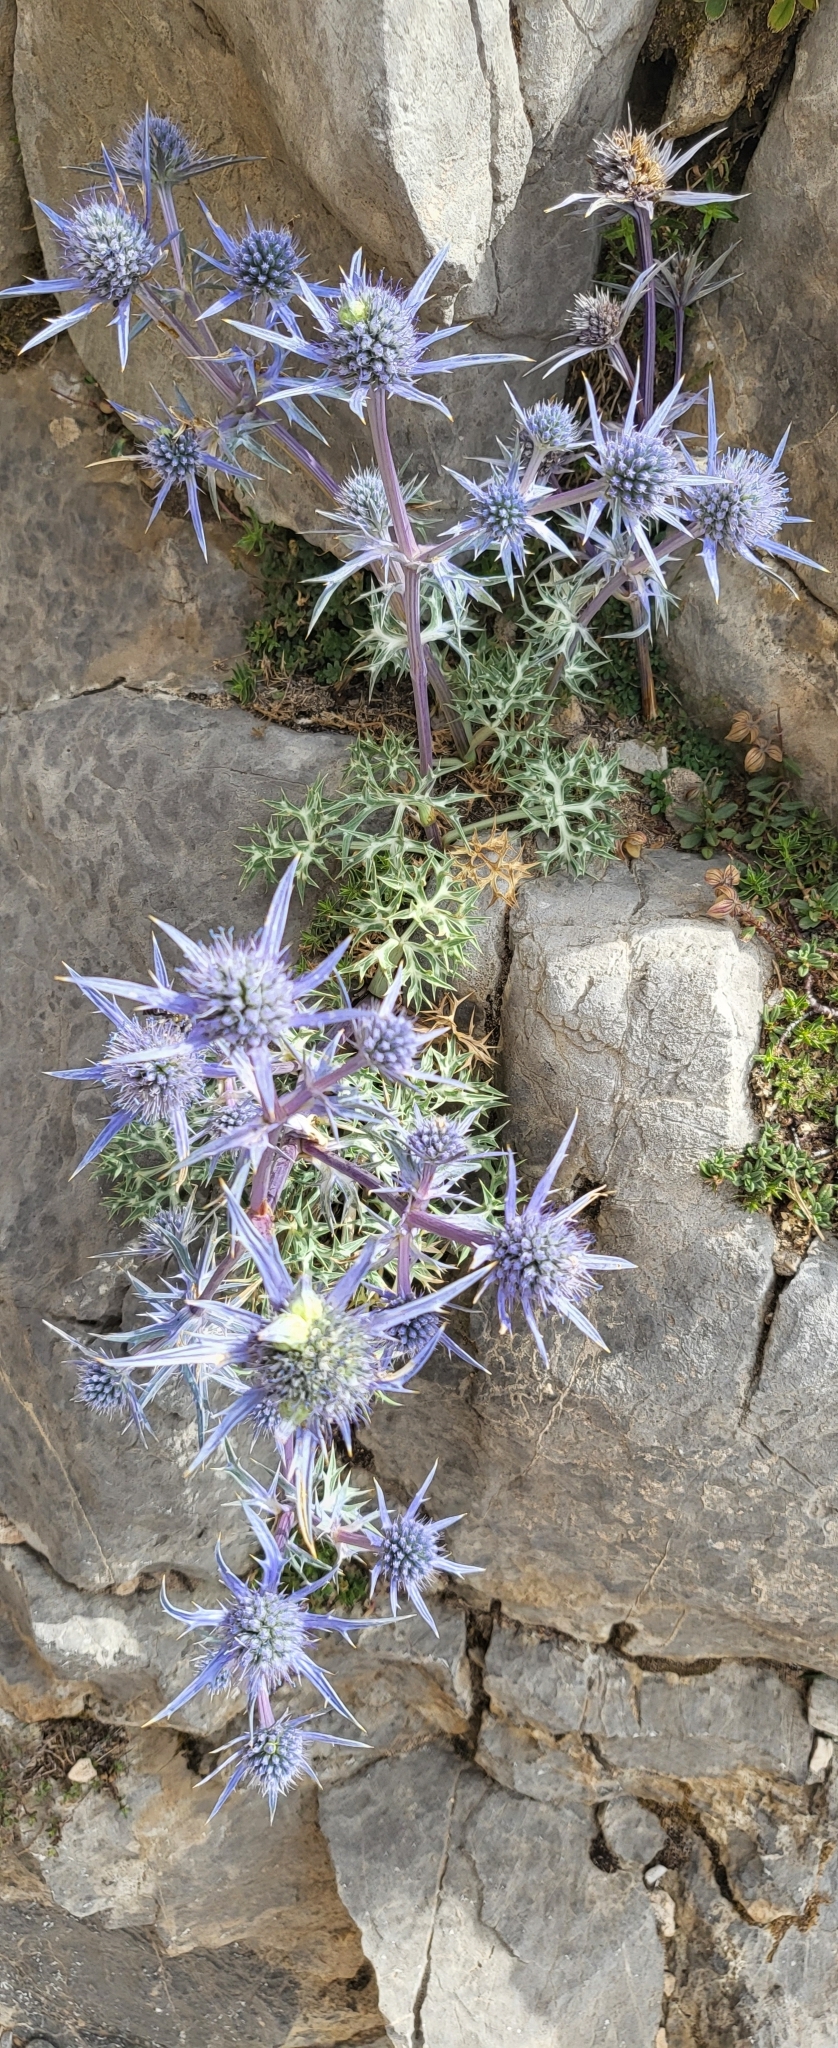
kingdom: Plantae
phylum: Tracheophyta
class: Magnoliopsida
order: Apiales
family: Apiaceae
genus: Eryngium
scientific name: Eryngium bourgatii
